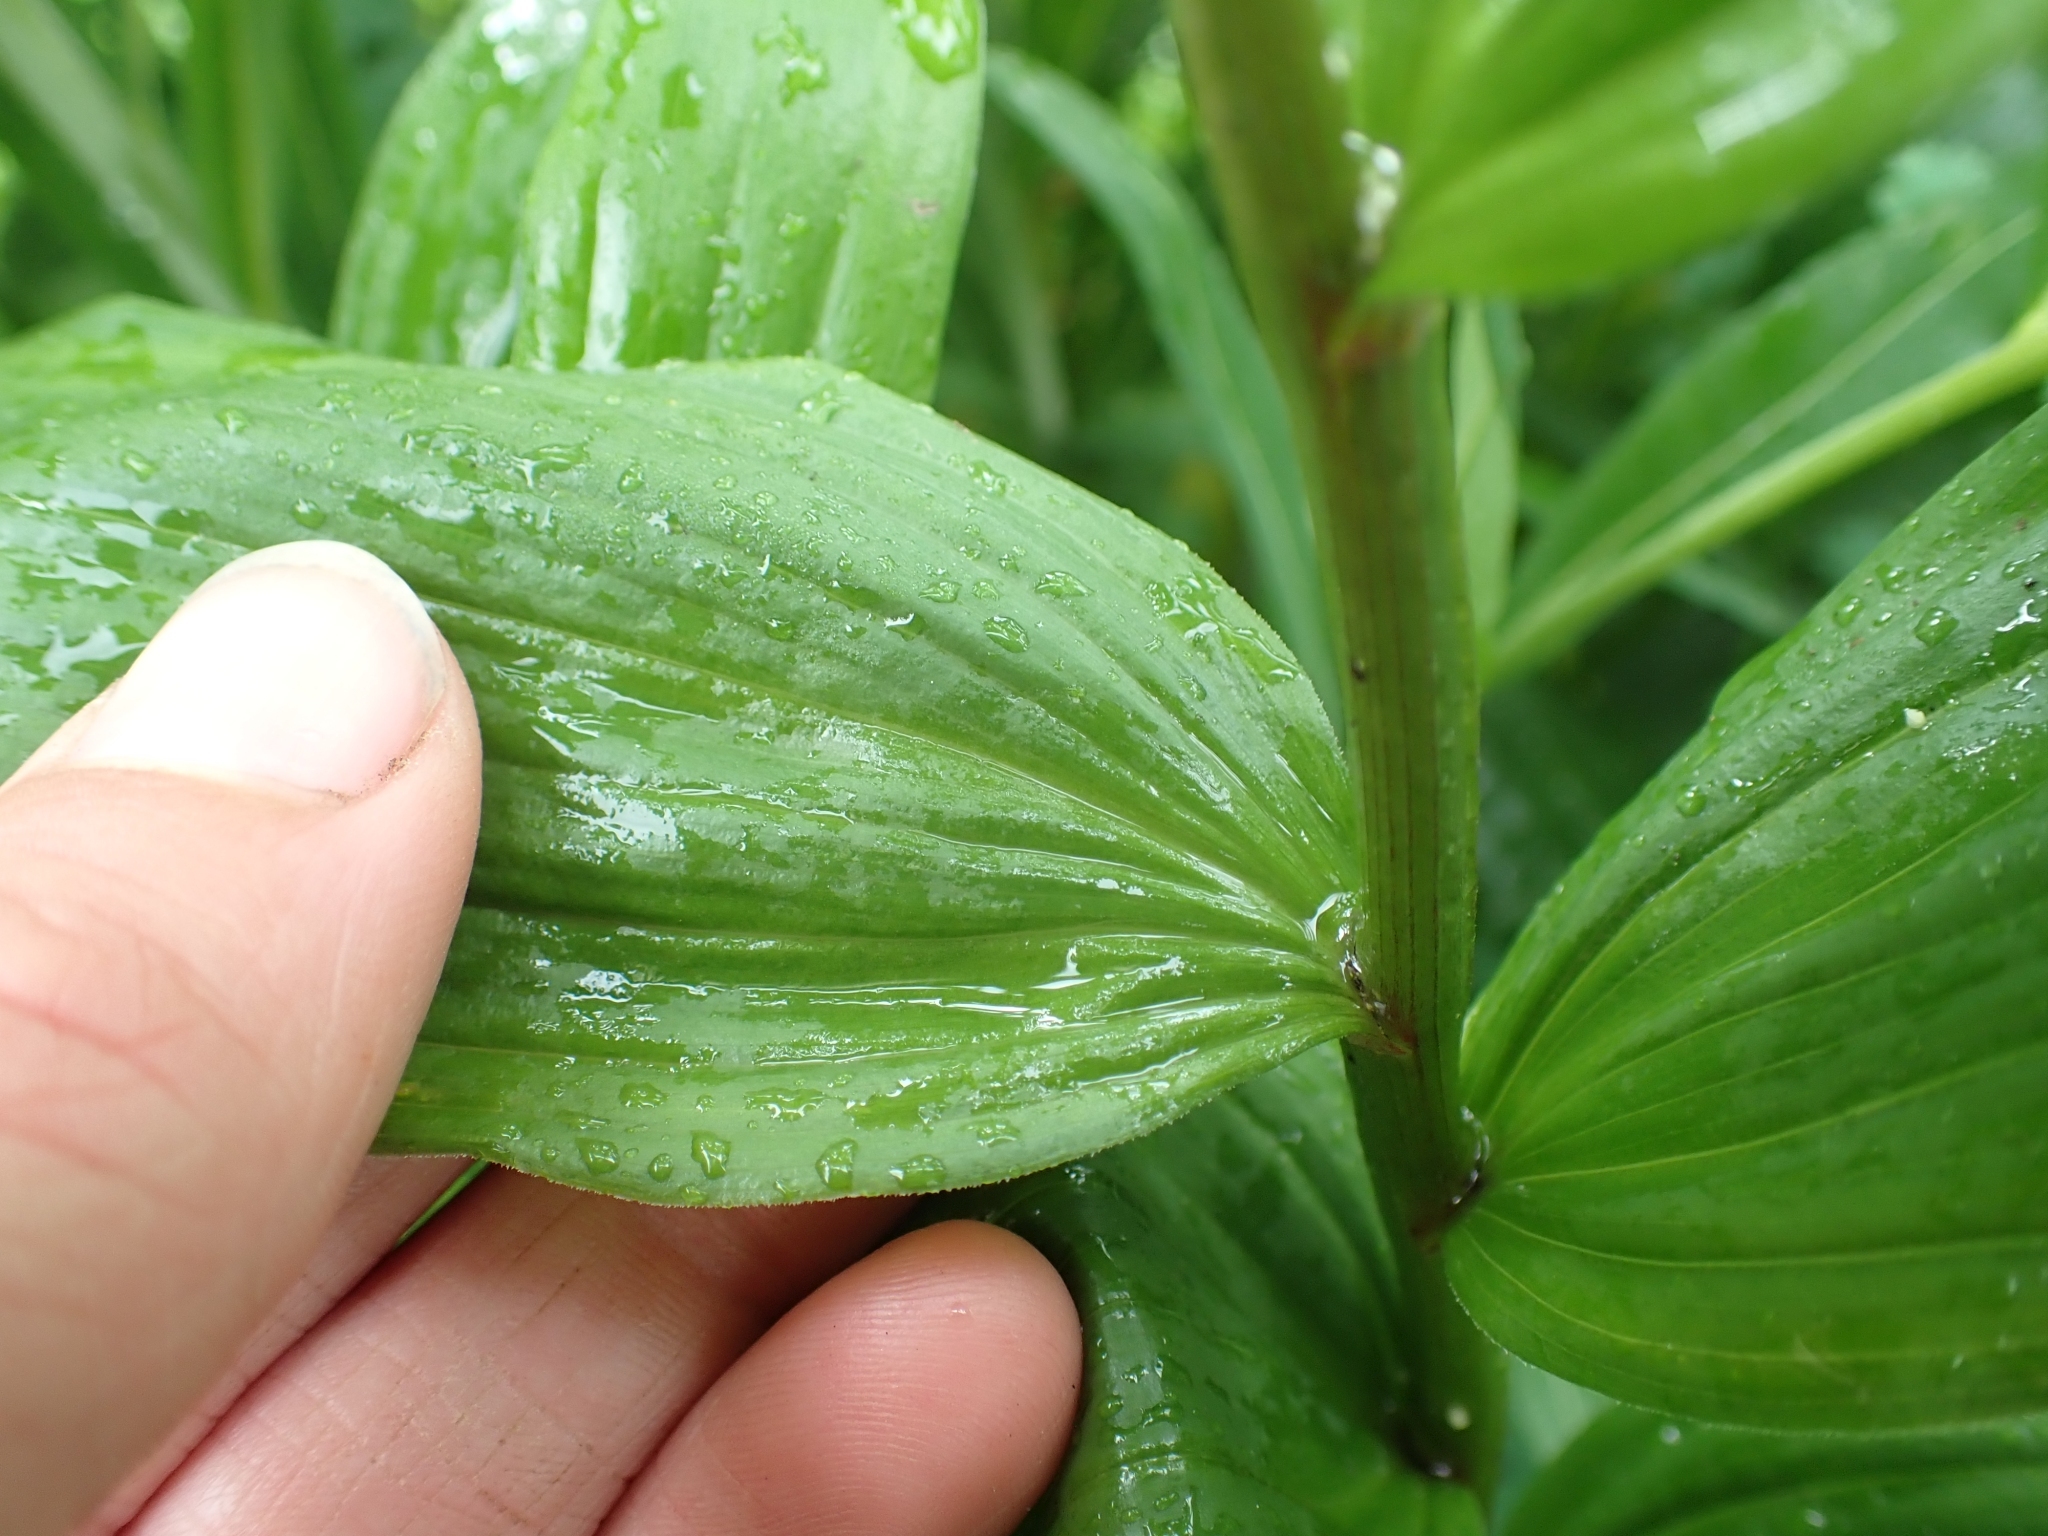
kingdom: Plantae
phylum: Tracheophyta
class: Liliopsida
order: Asparagales
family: Asparagaceae
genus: Maianthemum
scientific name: Maianthemum racemosum
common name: False spikenard
